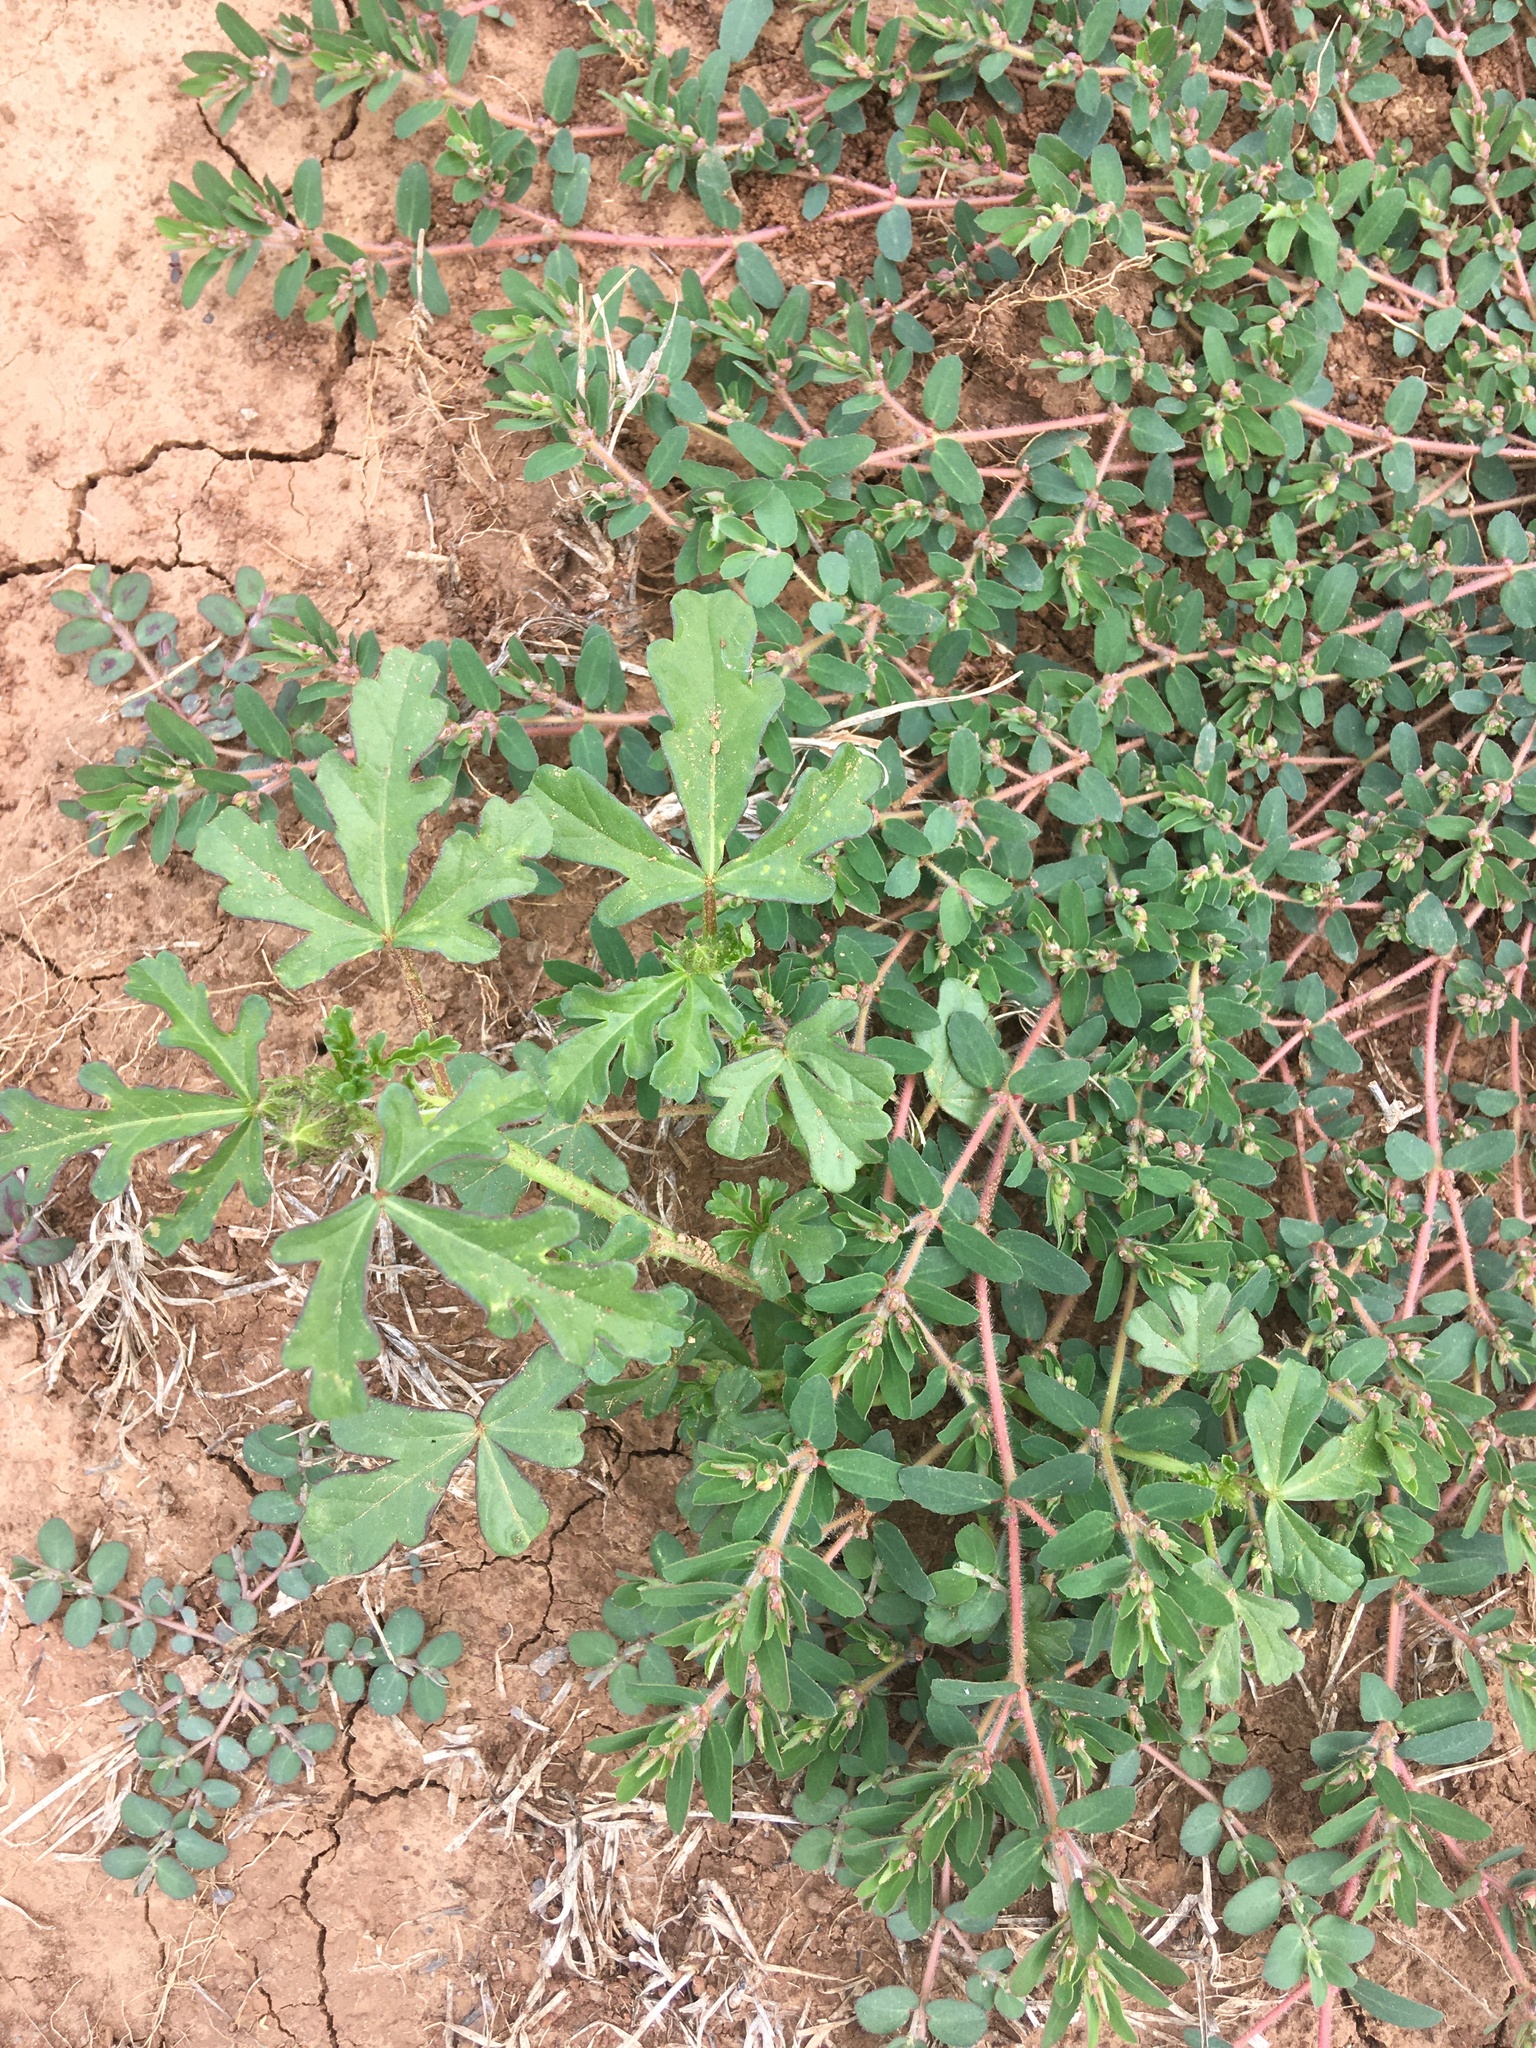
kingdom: Plantae
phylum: Tracheophyta
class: Magnoliopsida
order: Malvales
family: Malvaceae
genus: Hibiscus
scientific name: Hibiscus trionum
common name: Bladder ketmia
